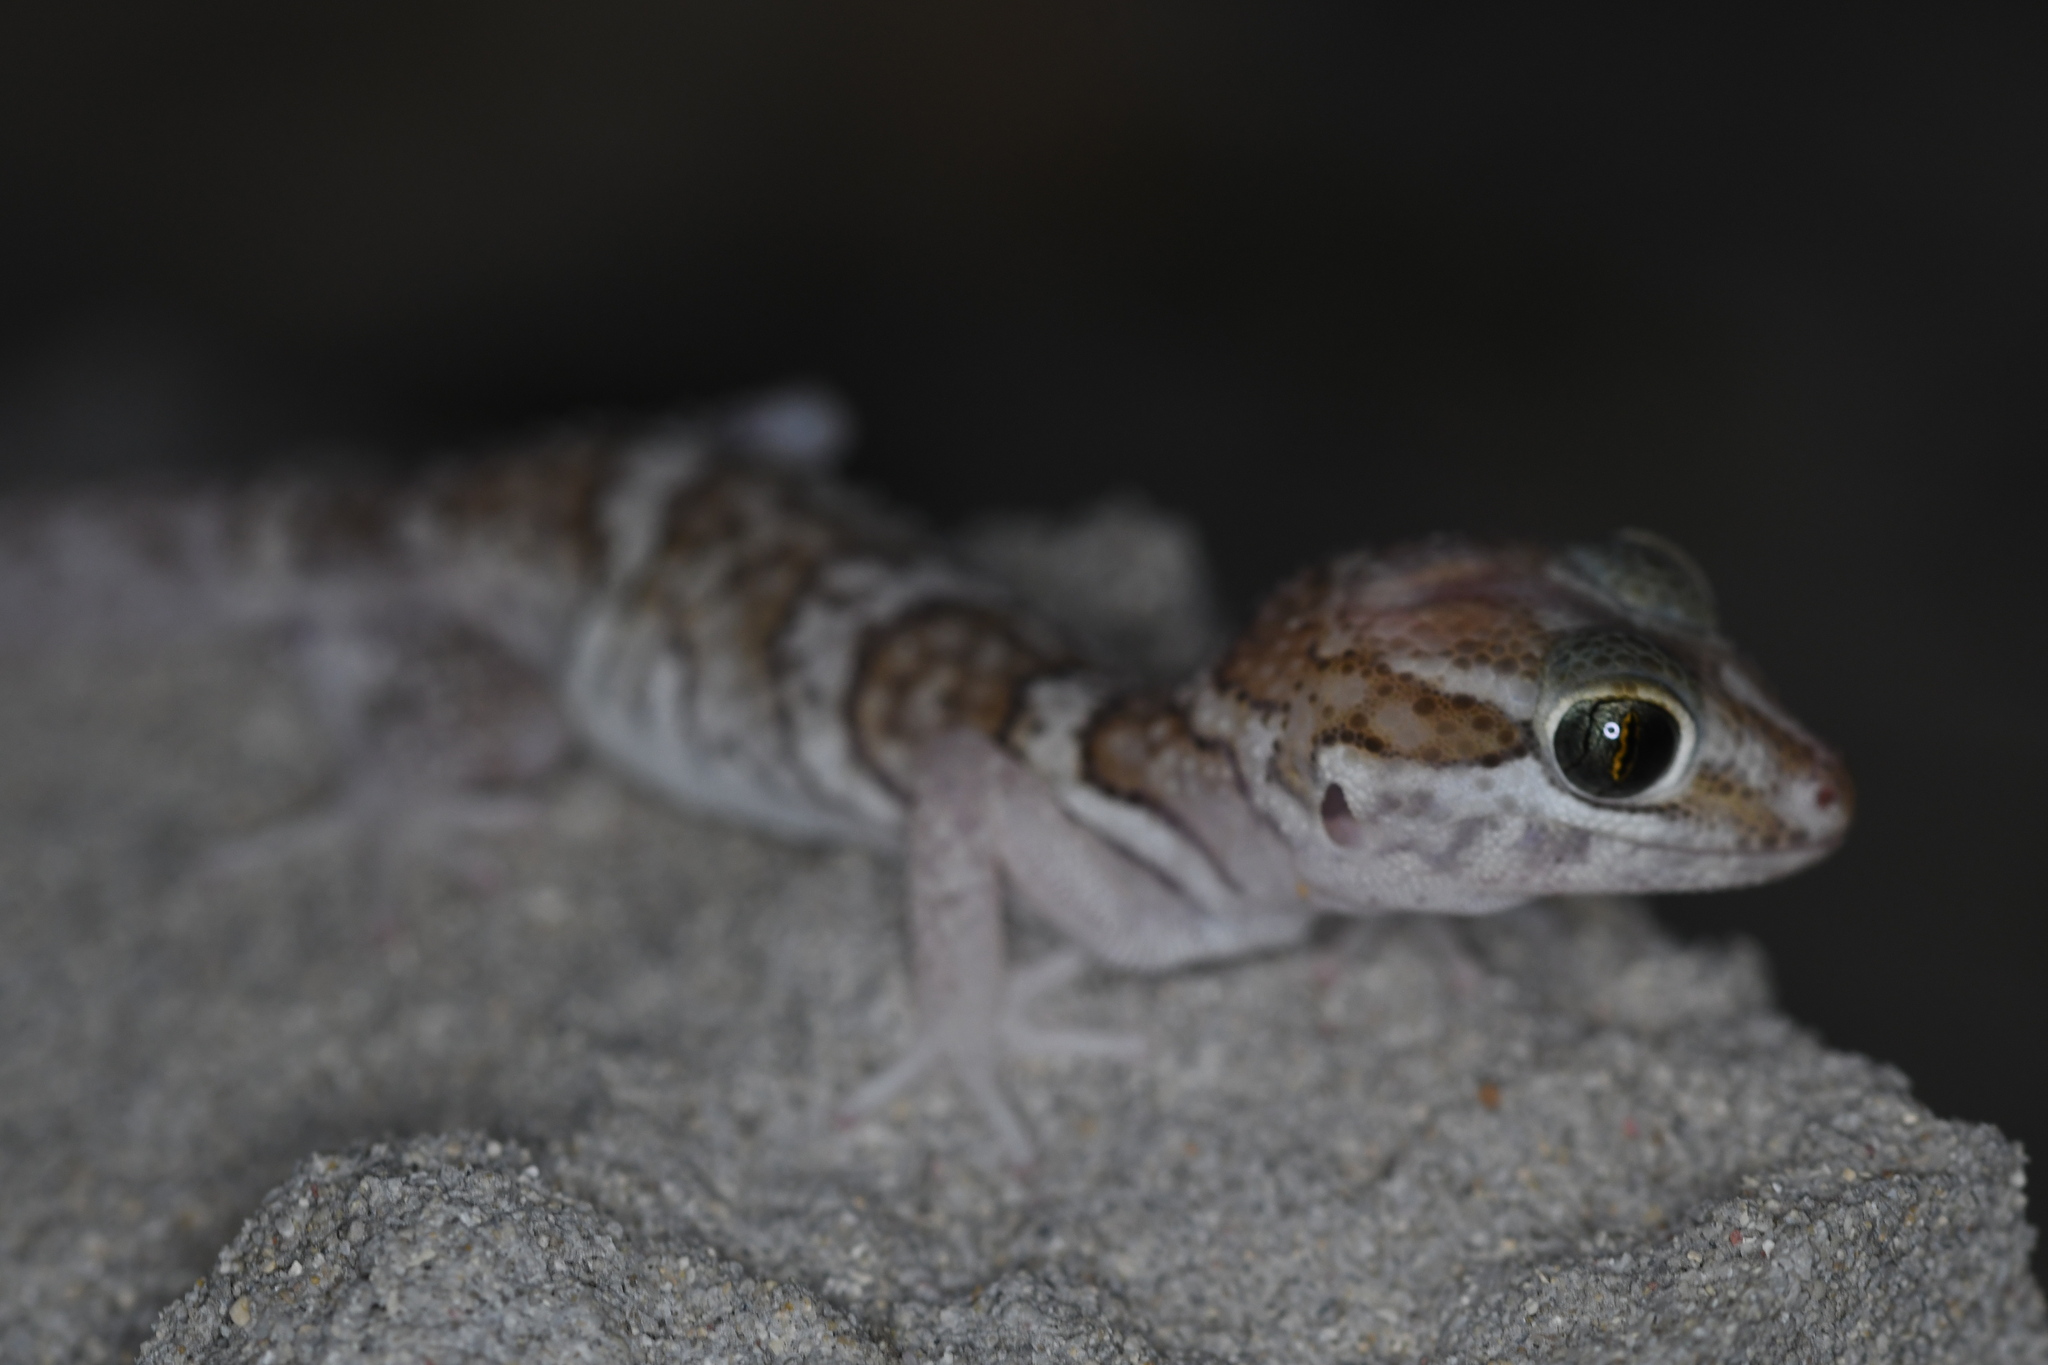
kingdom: Animalia
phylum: Chordata
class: Squamata
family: Gekkonidae
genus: Paroedura
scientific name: Paroedura picta
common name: Panther gecko
